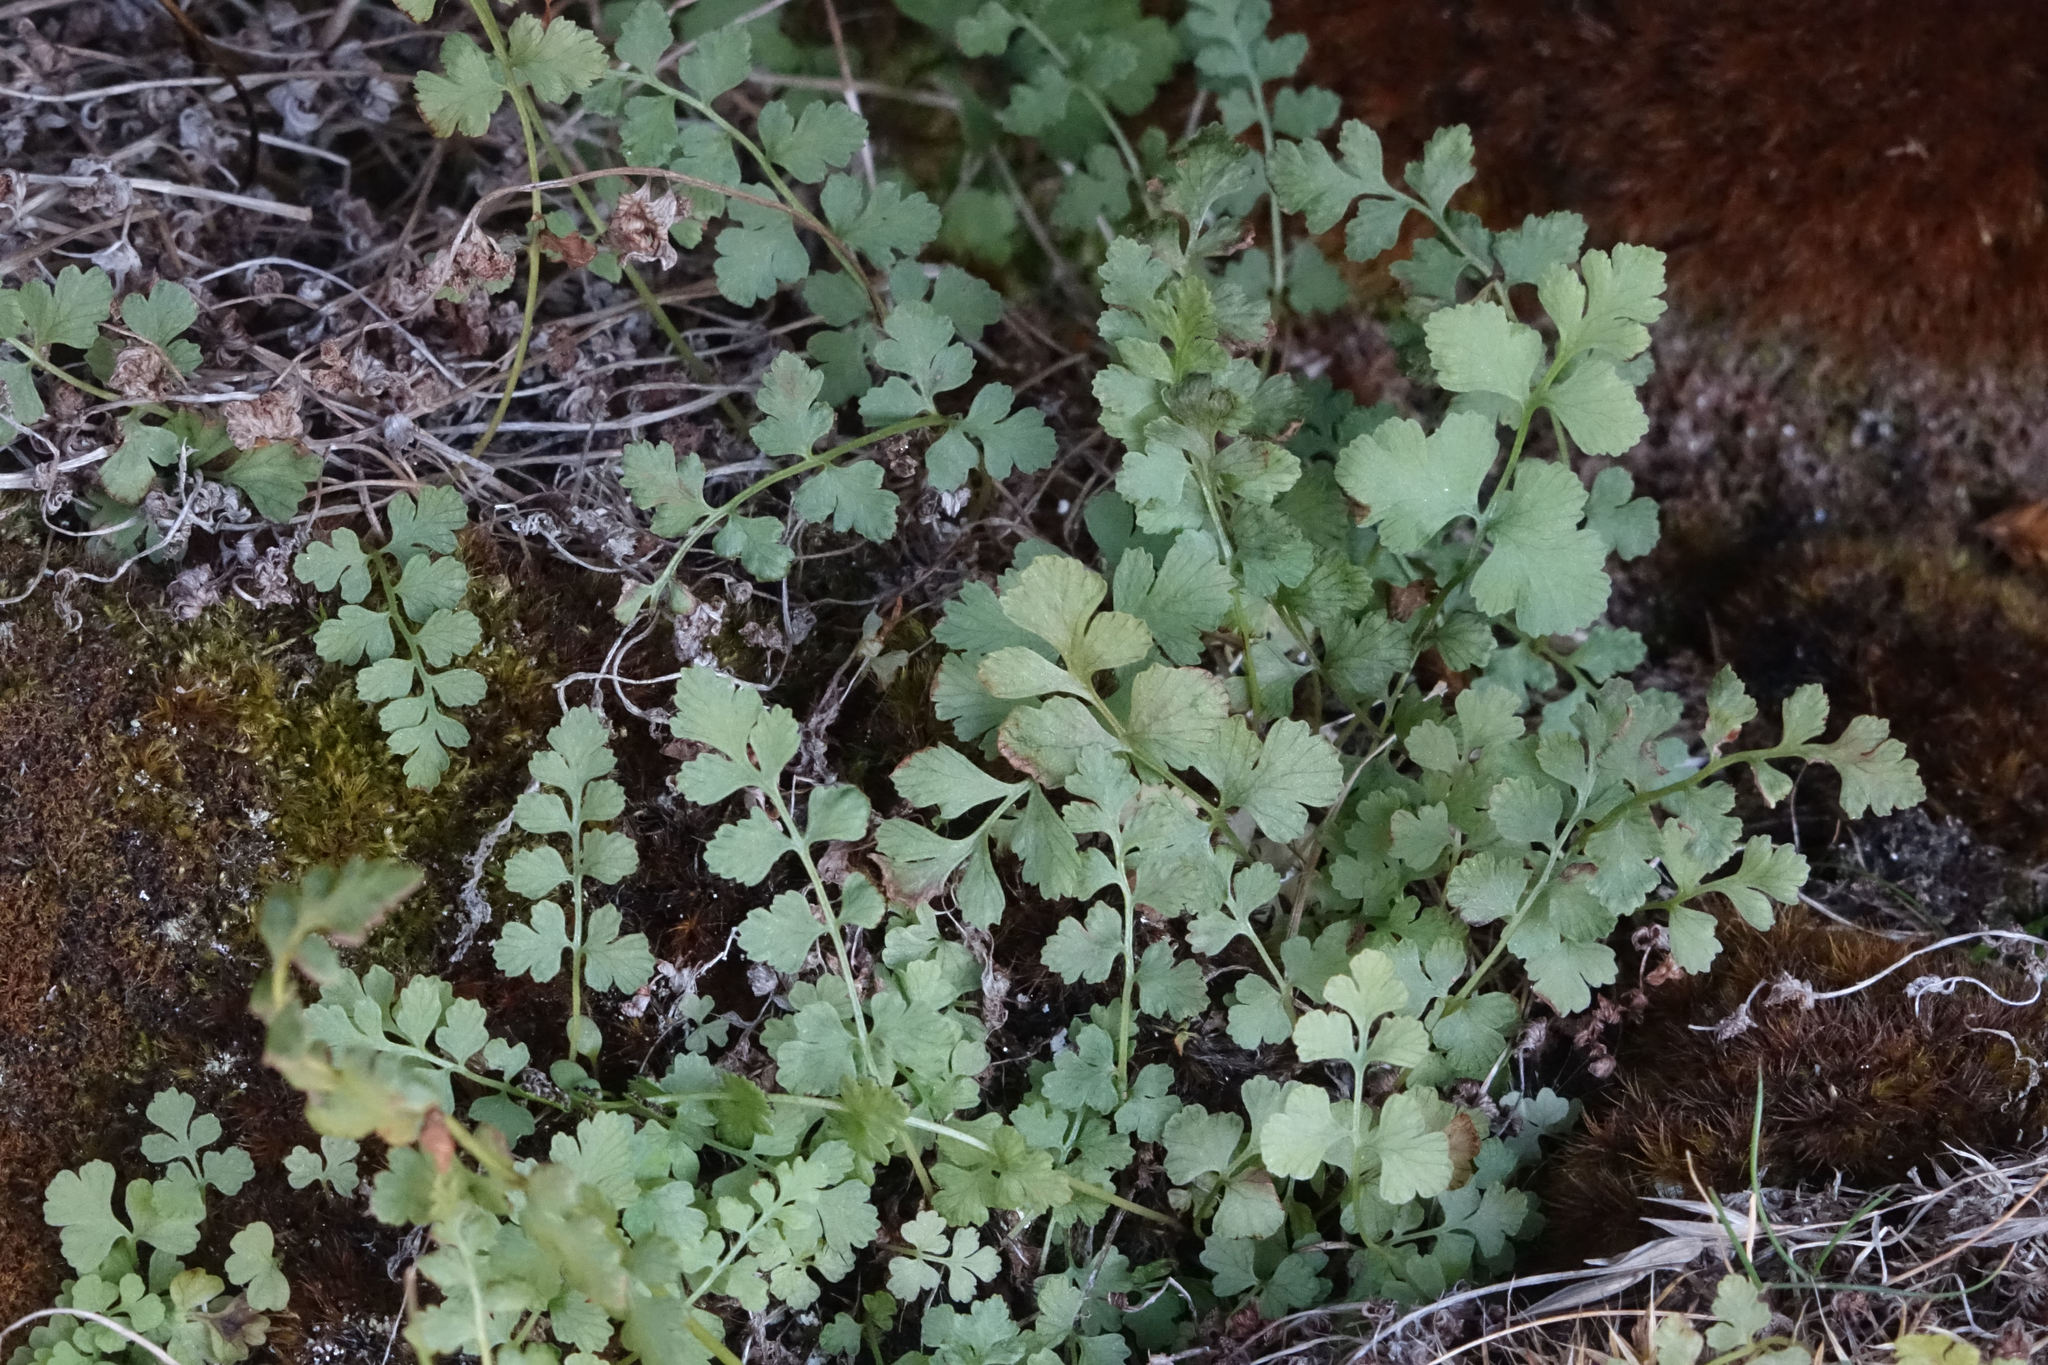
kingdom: Plantae
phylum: Tracheophyta
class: Polypodiopsida
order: Polypodiales
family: Cystopteridaceae
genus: Cystopteris
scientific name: Cystopteris tasmanica
